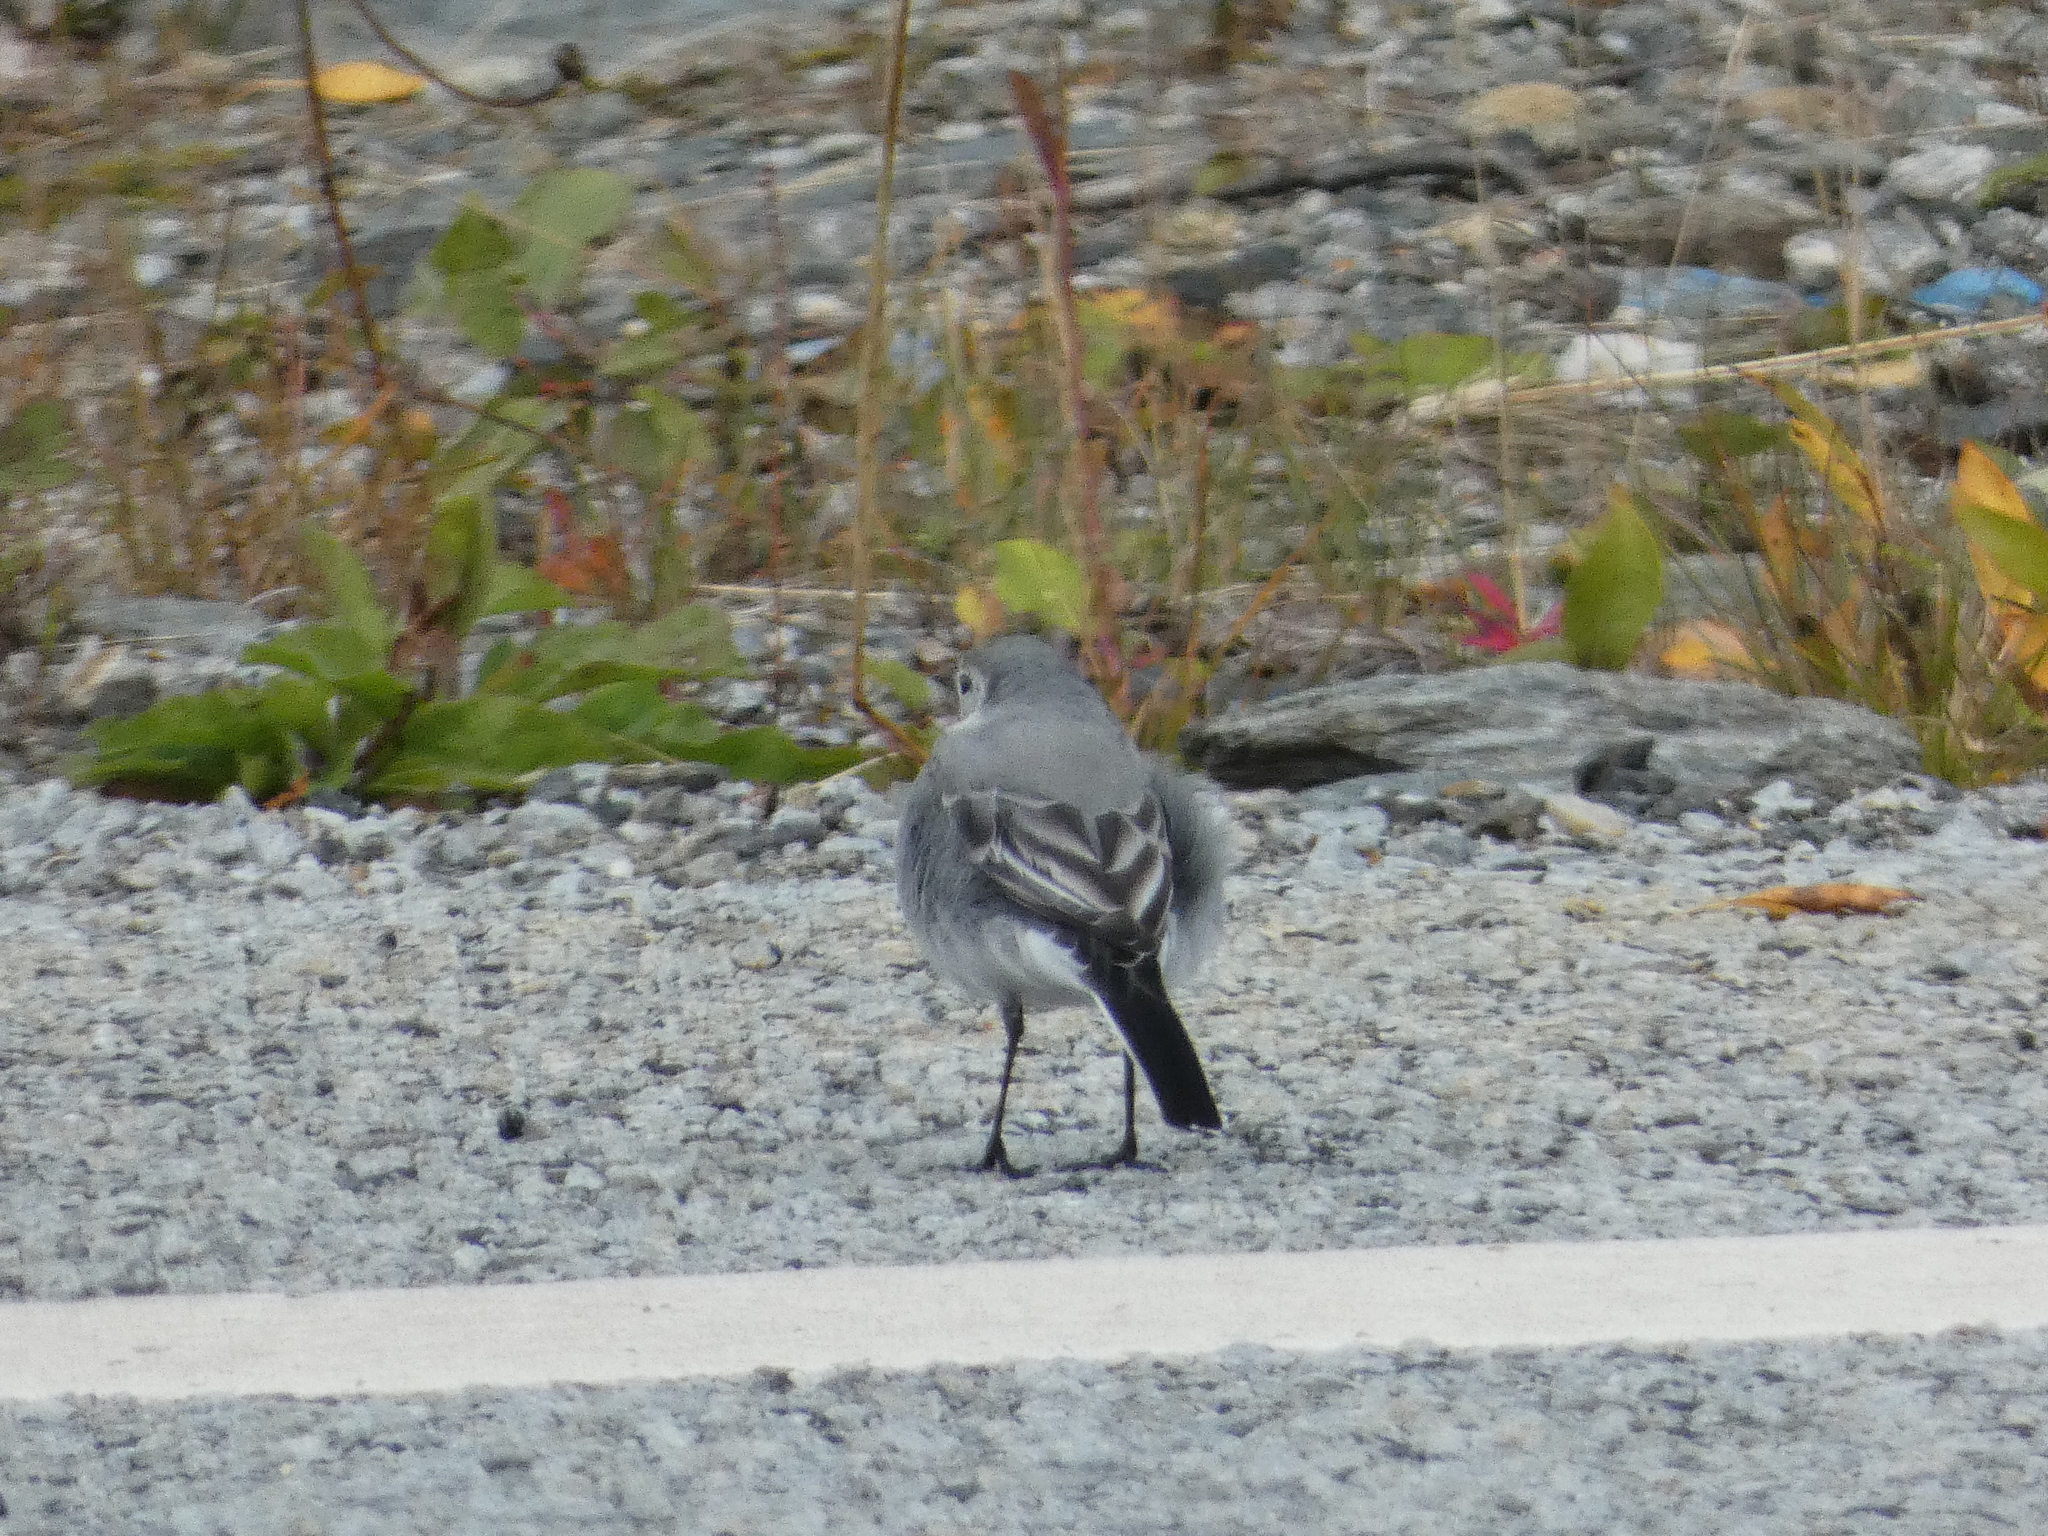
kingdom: Animalia
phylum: Chordata
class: Aves
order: Passeriformes
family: Motacillidae
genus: Motacilla
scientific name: Motacilla alba
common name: White wagtail
